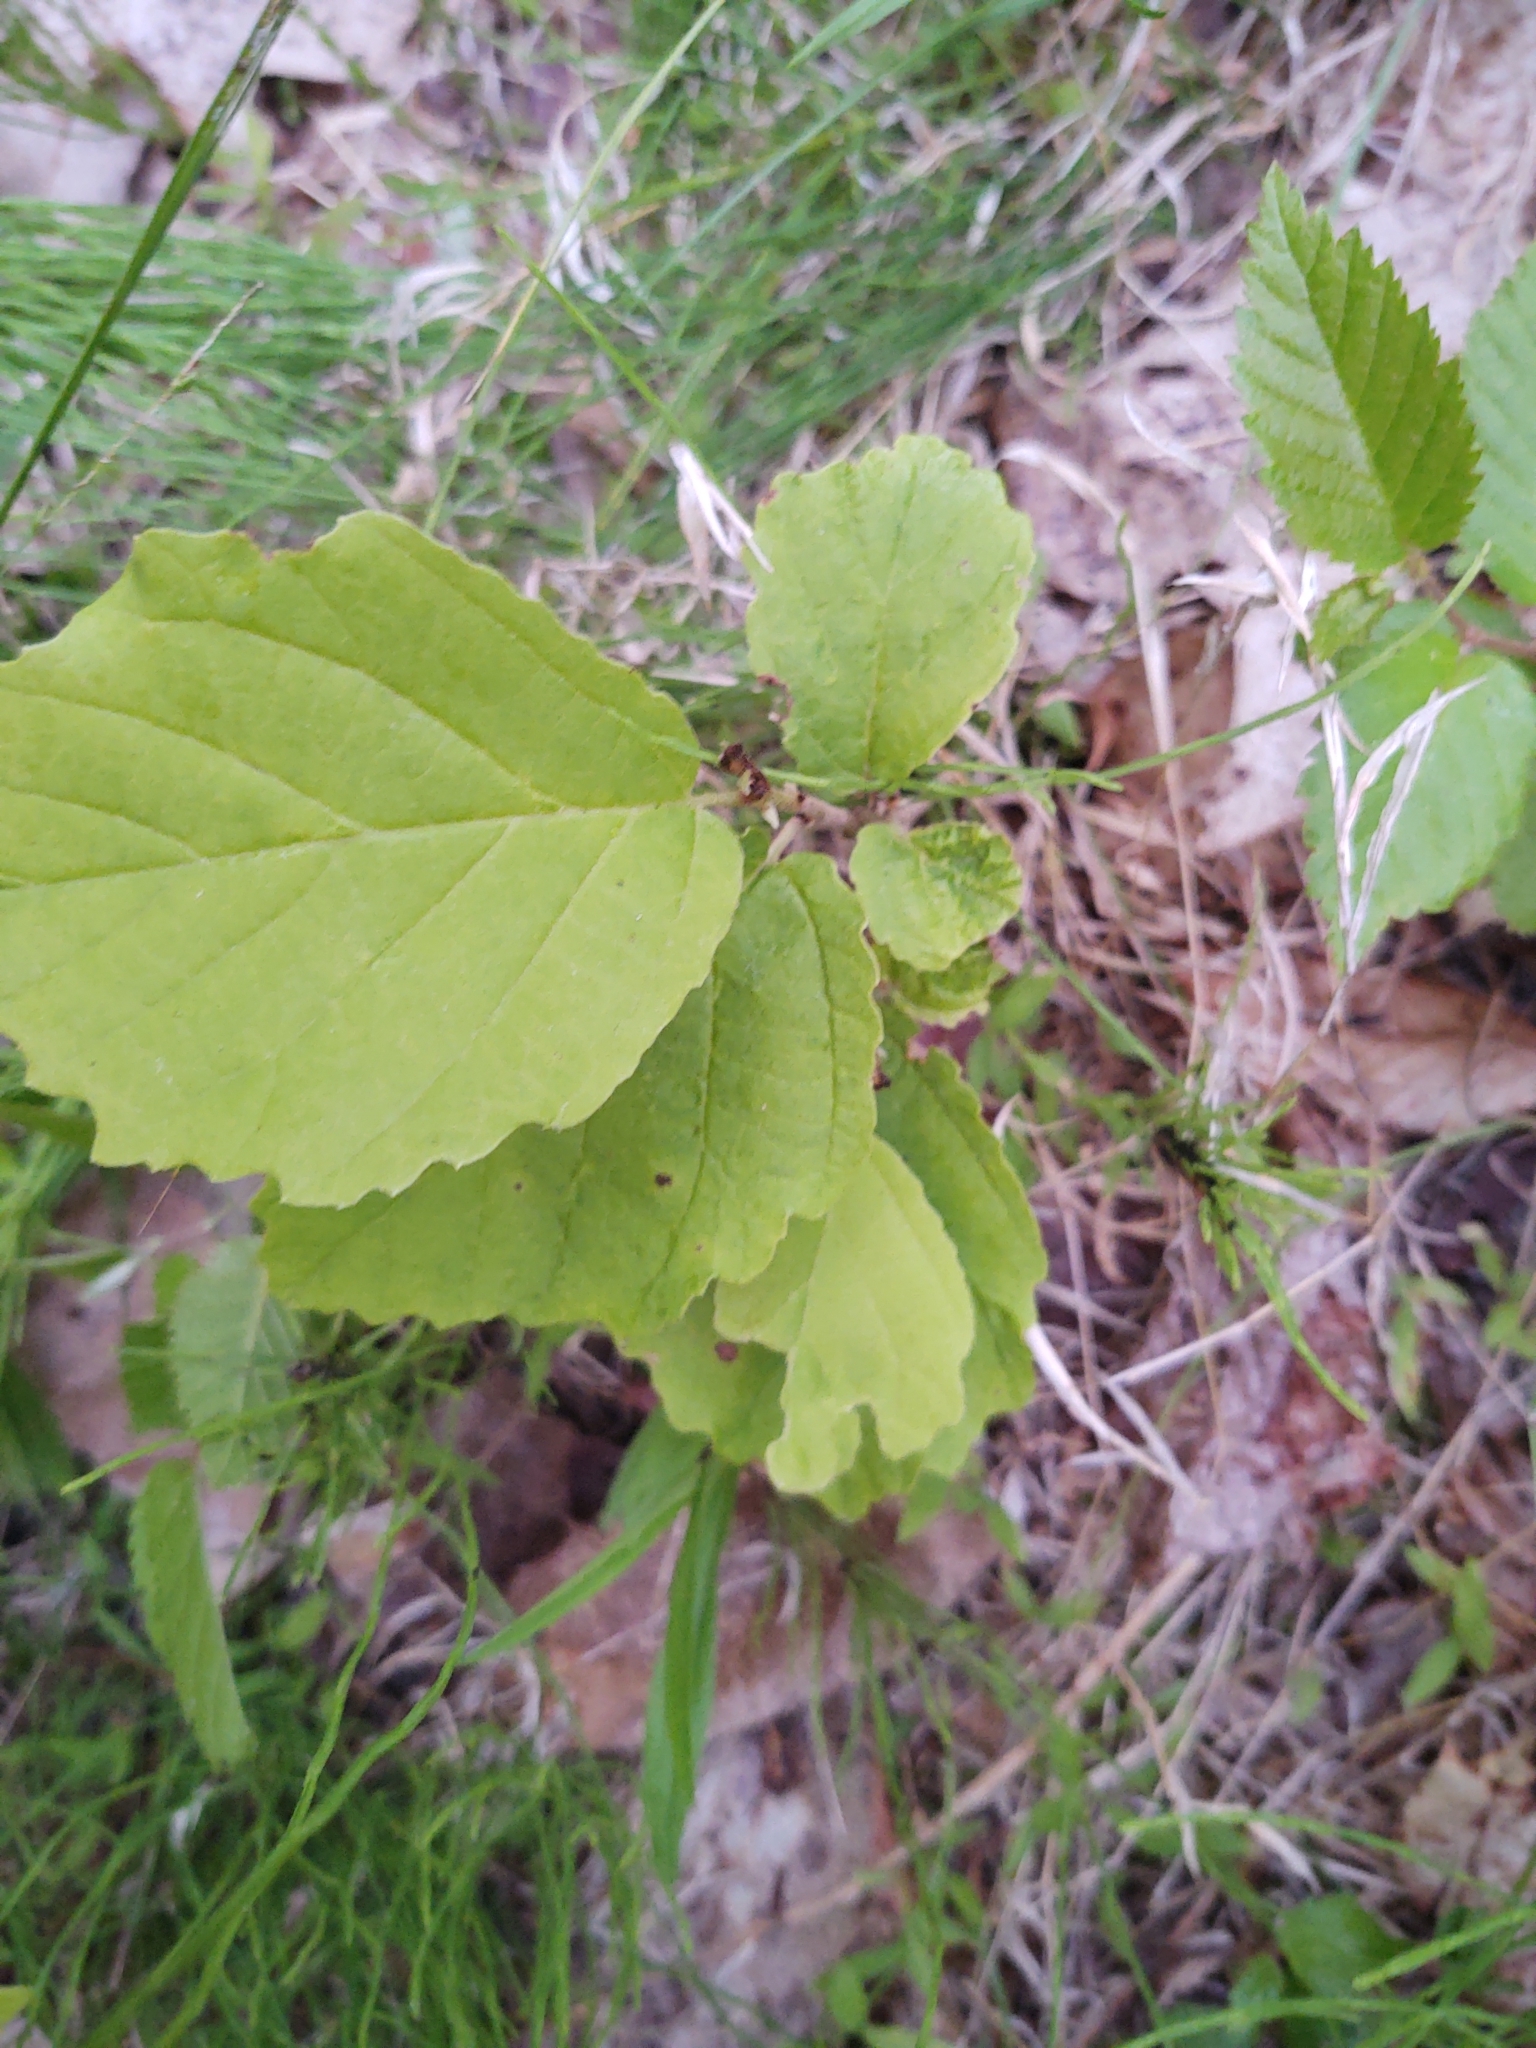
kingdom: Plantae
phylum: Tracheophyta
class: Magnoliopsida
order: Saxifragales
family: Hamamelidaceae
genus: Hamamelis
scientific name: Hamamelis virginiana
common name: Witch-hazel
